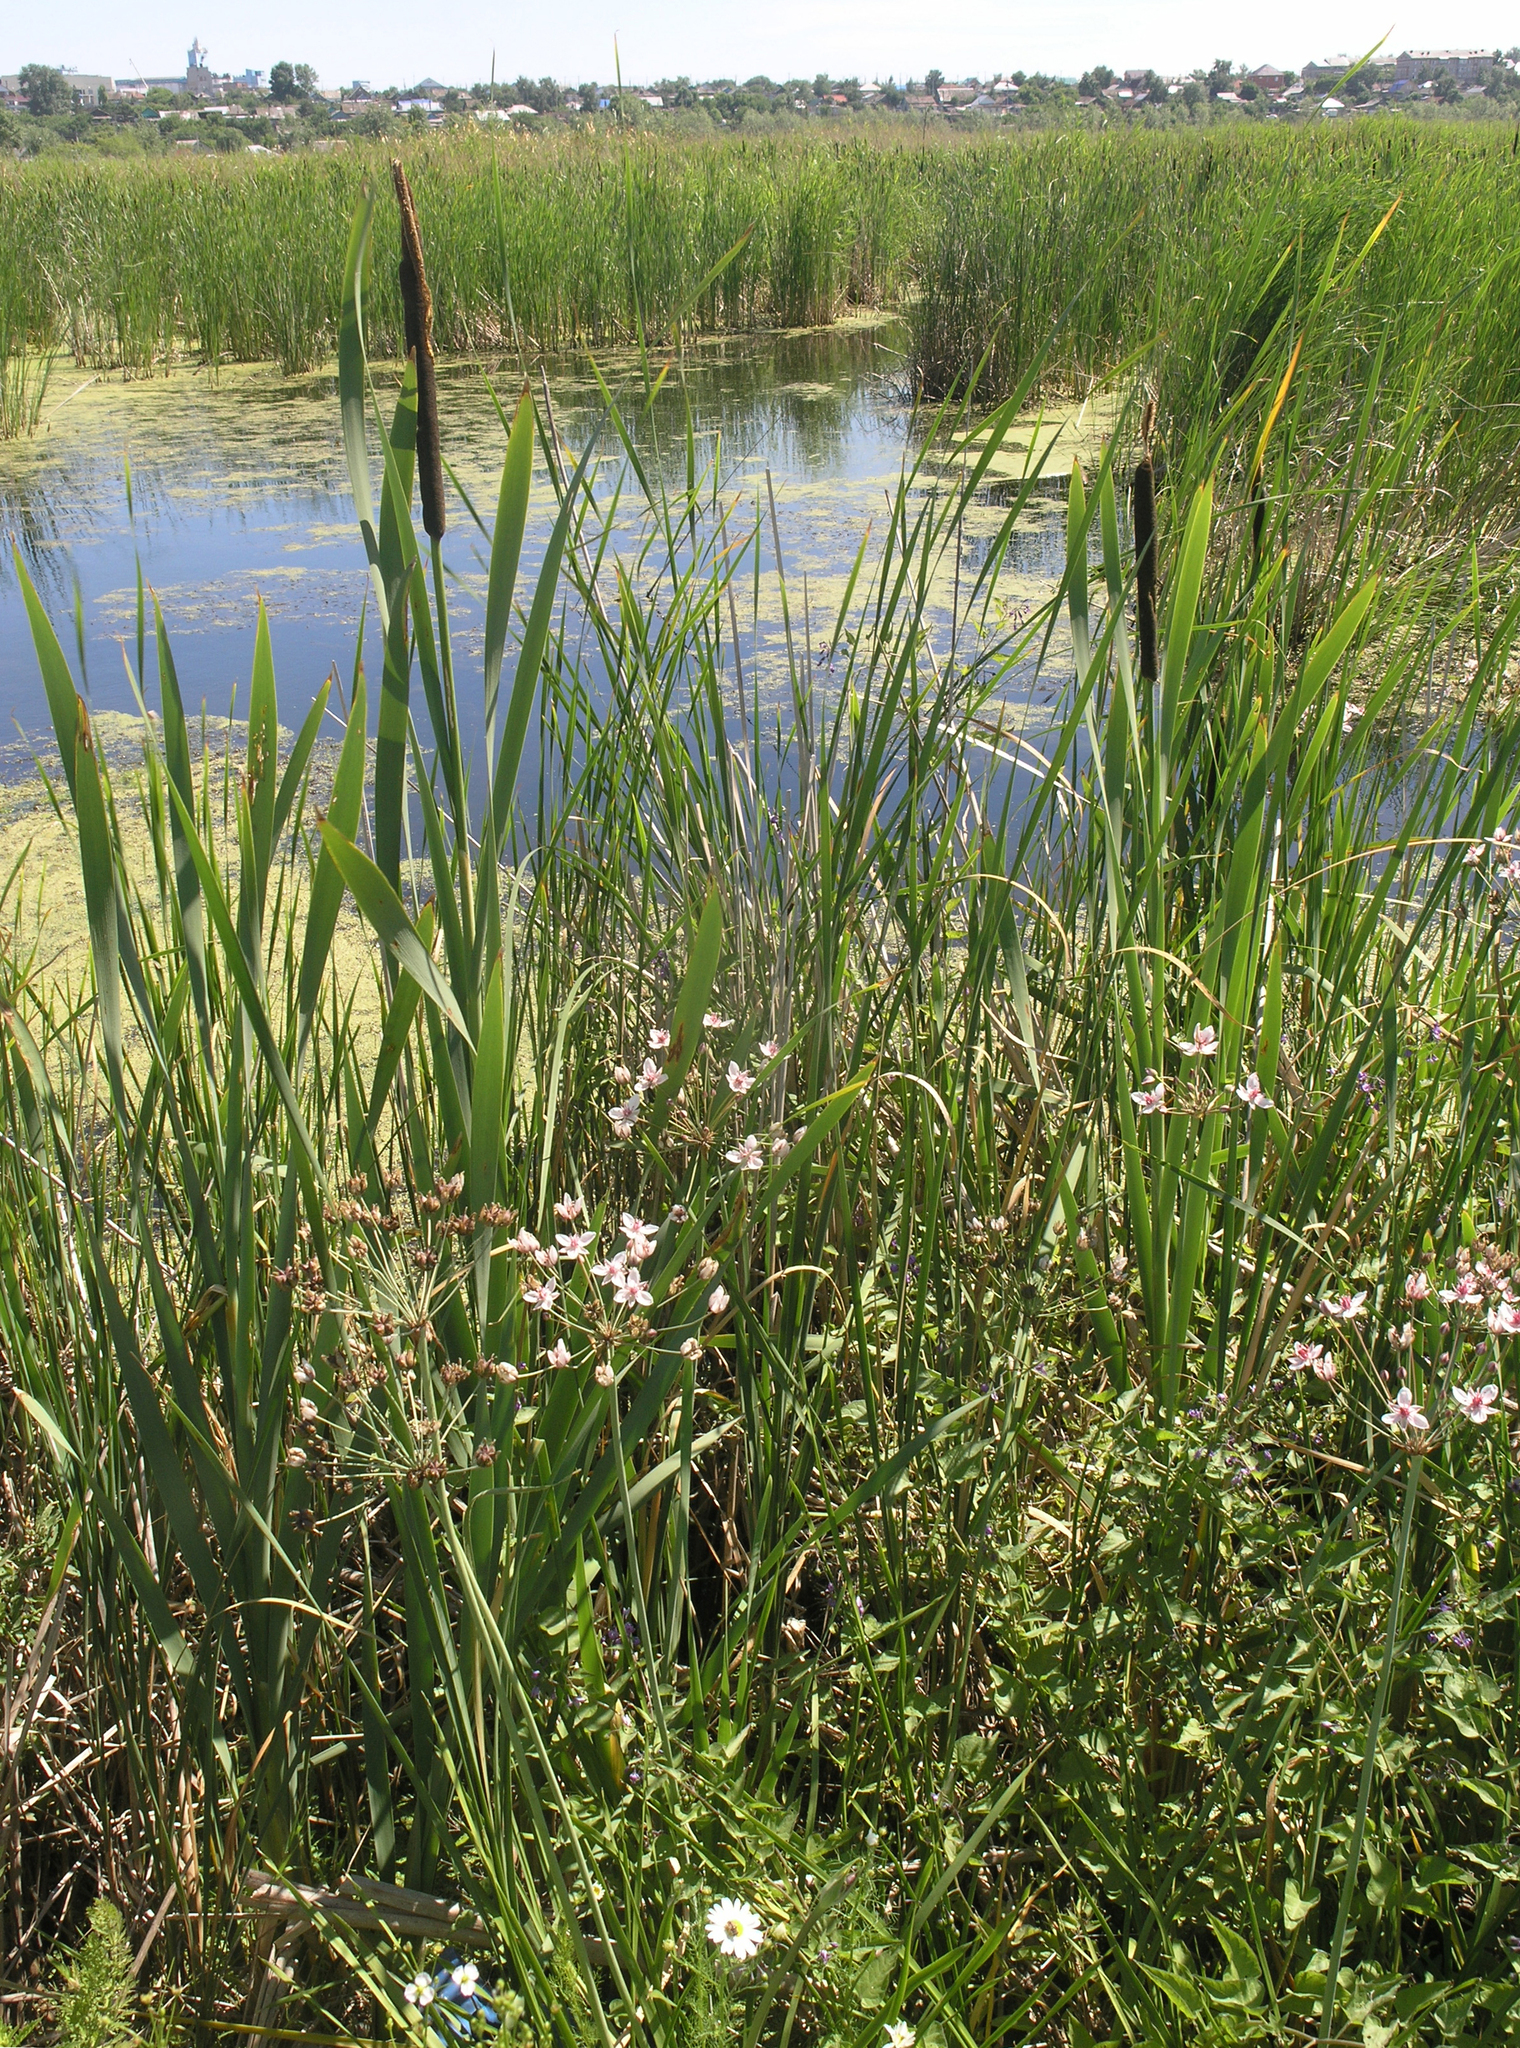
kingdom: Plantae
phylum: Tracheophyta
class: Liliopsida
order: Alismatales
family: Butomaceae
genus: Butomus
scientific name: Butomus umbellatus
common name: Flowering-rush
